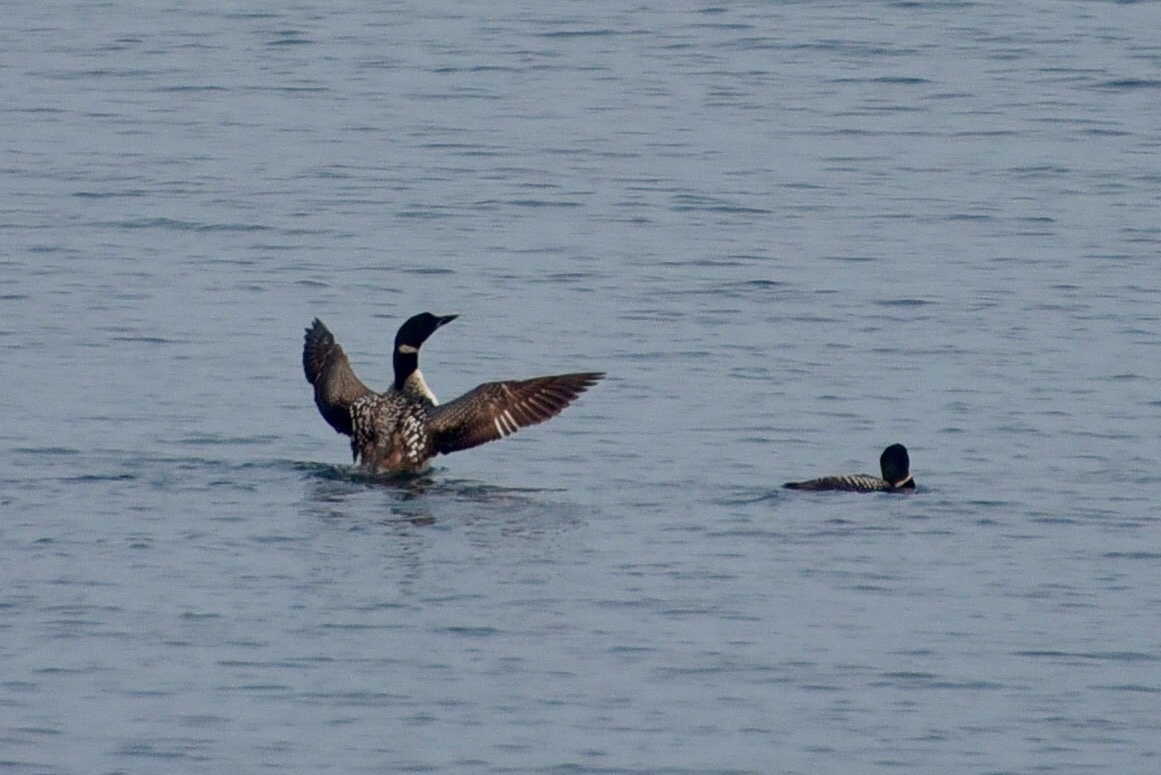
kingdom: Animalia
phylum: Chordata
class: Aves
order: Gaviiformes
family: Gaviidae
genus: Gavia
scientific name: Gavia immer
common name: Common loon
